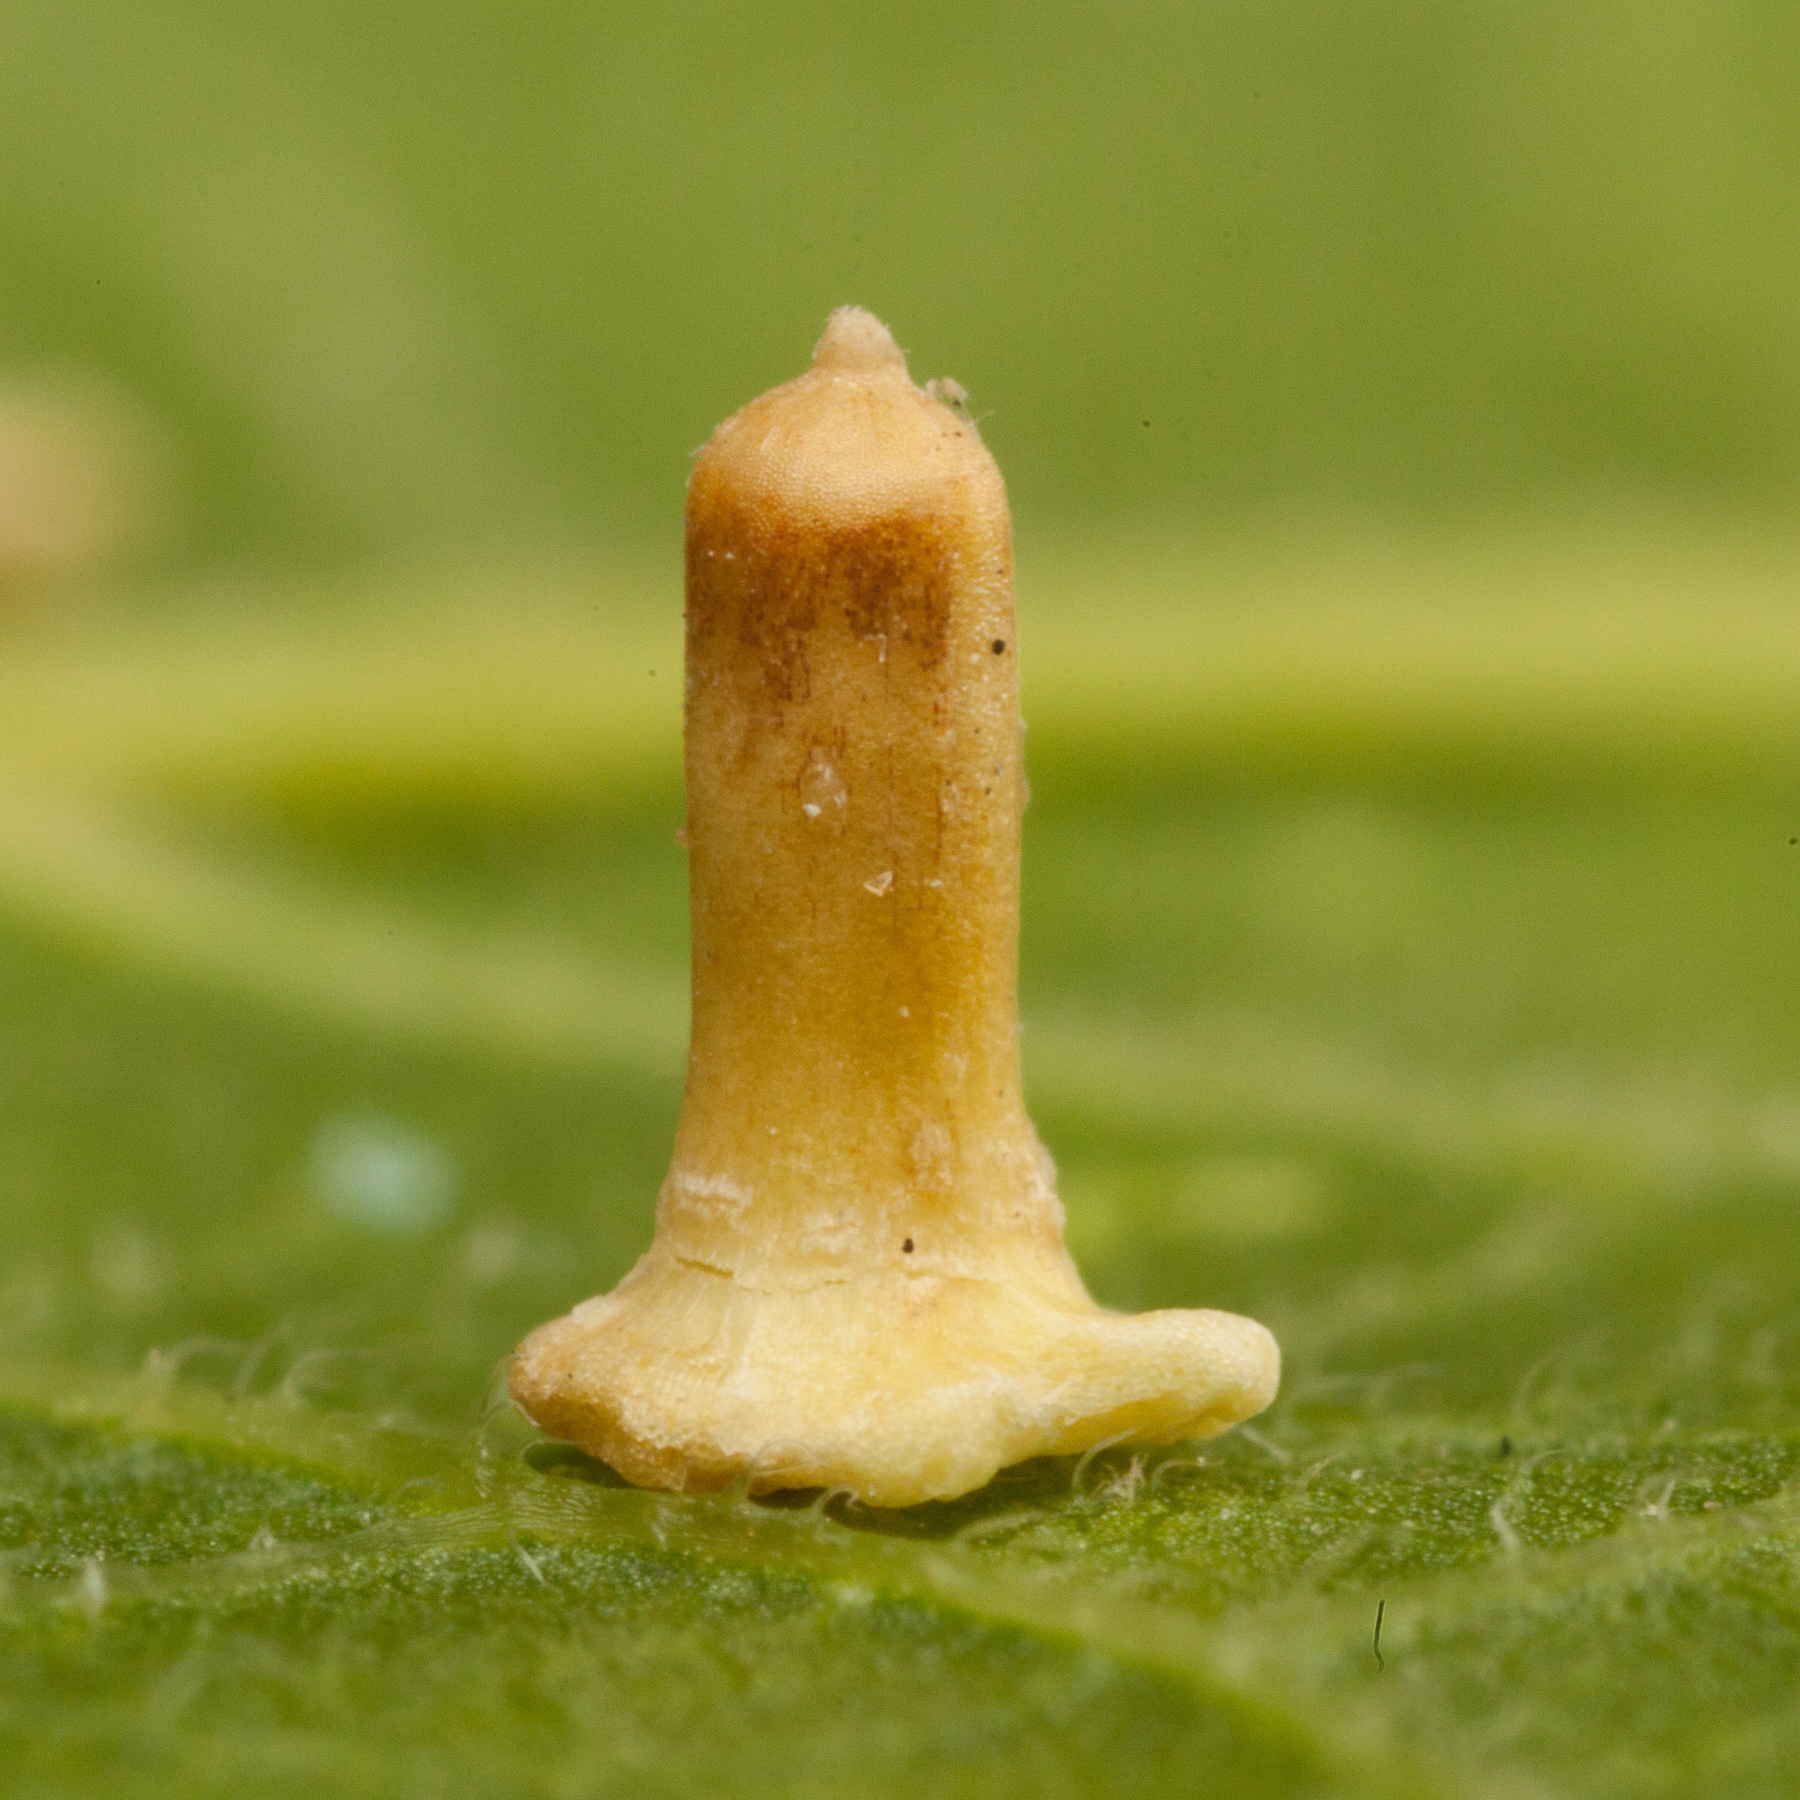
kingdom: Animalia
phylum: Arthropoda
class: Insecta
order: Diptera
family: Cecidomyiidae
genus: Celticecis
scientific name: Celticecis aciculata
